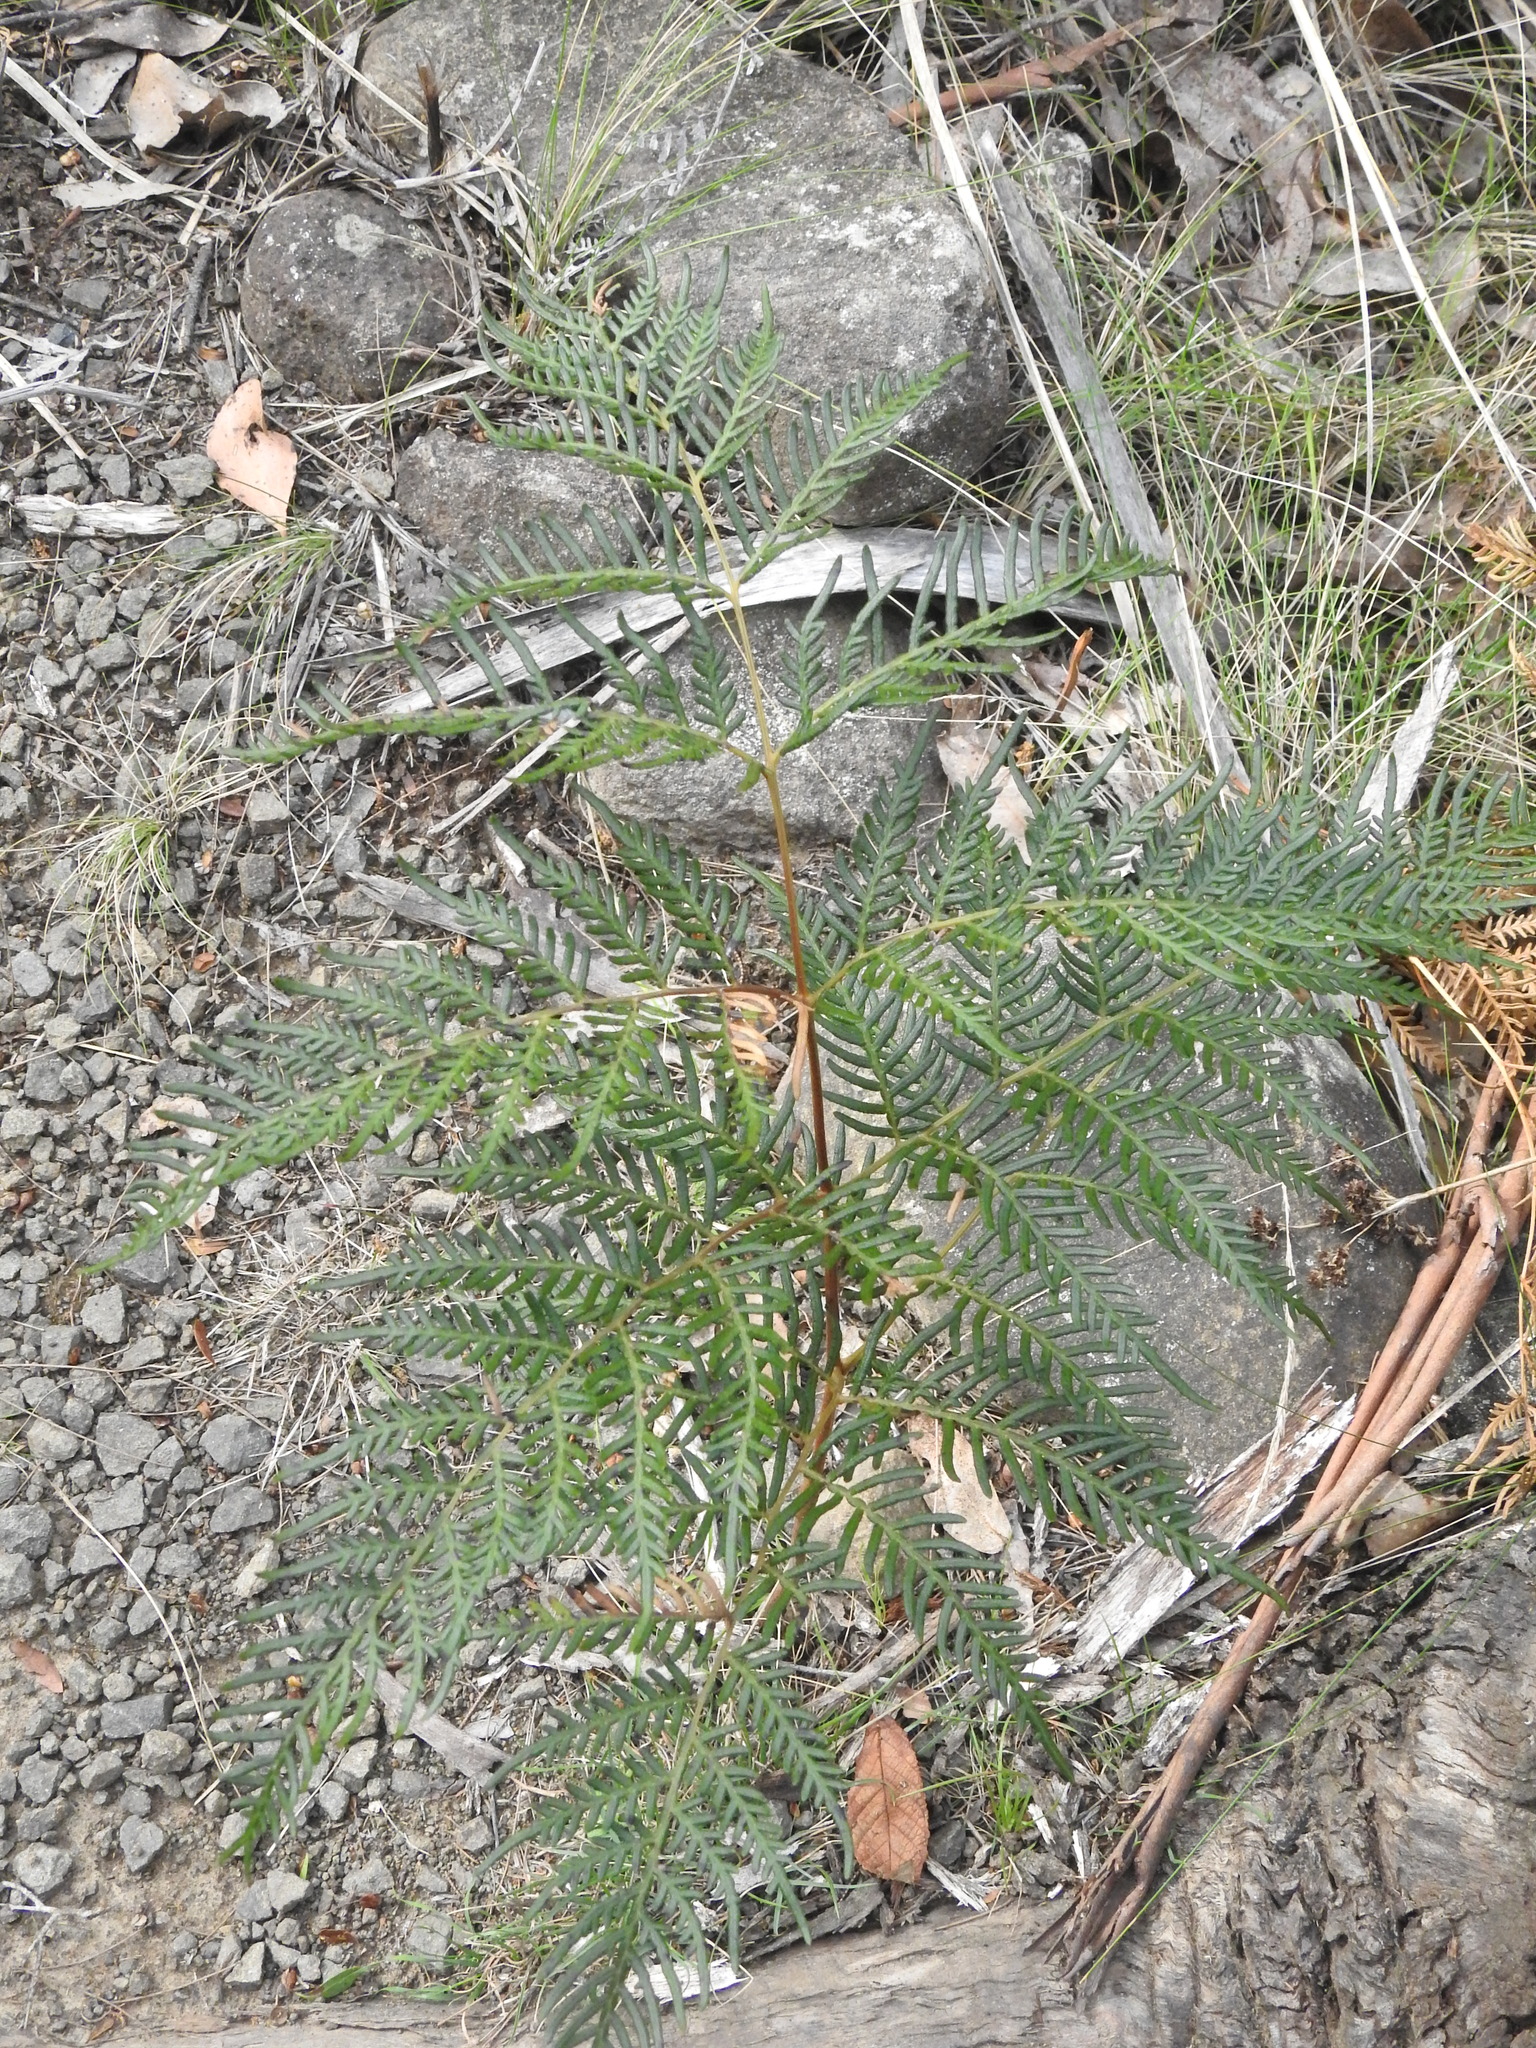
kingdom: Plantae
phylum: Tracheophyta
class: Polypodiopsida
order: Polypodiales
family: Dennstaedtiaceae
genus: Pteridium
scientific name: Pteridium esculentum
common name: Bracken fern
